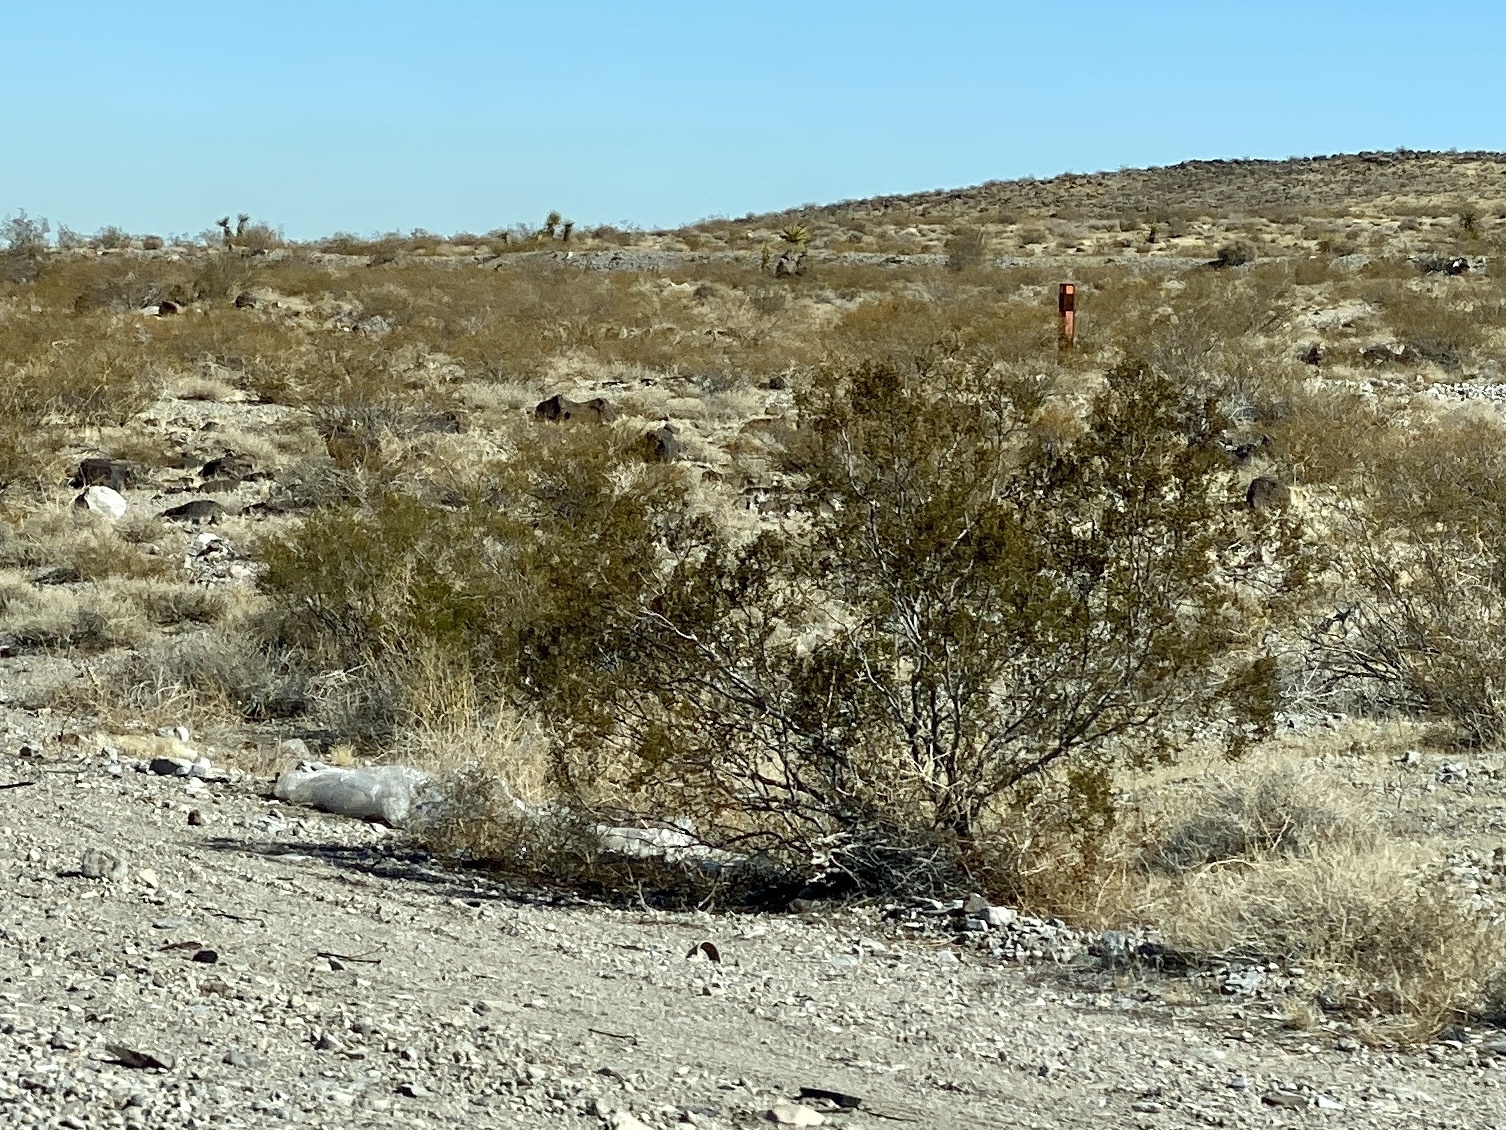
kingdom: Plantae
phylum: Tracheophyta
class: Magnoliopsida
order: Zygophyllales
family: Zygophyllaceae
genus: Larrea
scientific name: Larrea tridentata
